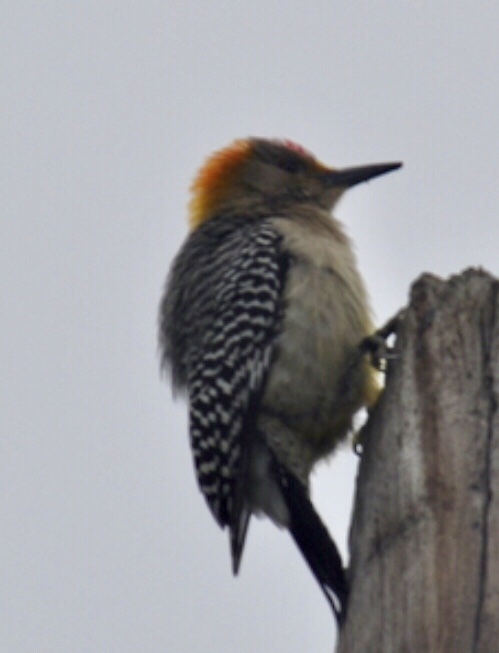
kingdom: Animalia
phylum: Chordata
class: Aves
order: Piciformes
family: Picidae
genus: Melanerpes
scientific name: Melanerpes aurifrons
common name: Golden-fronted woodpecker
